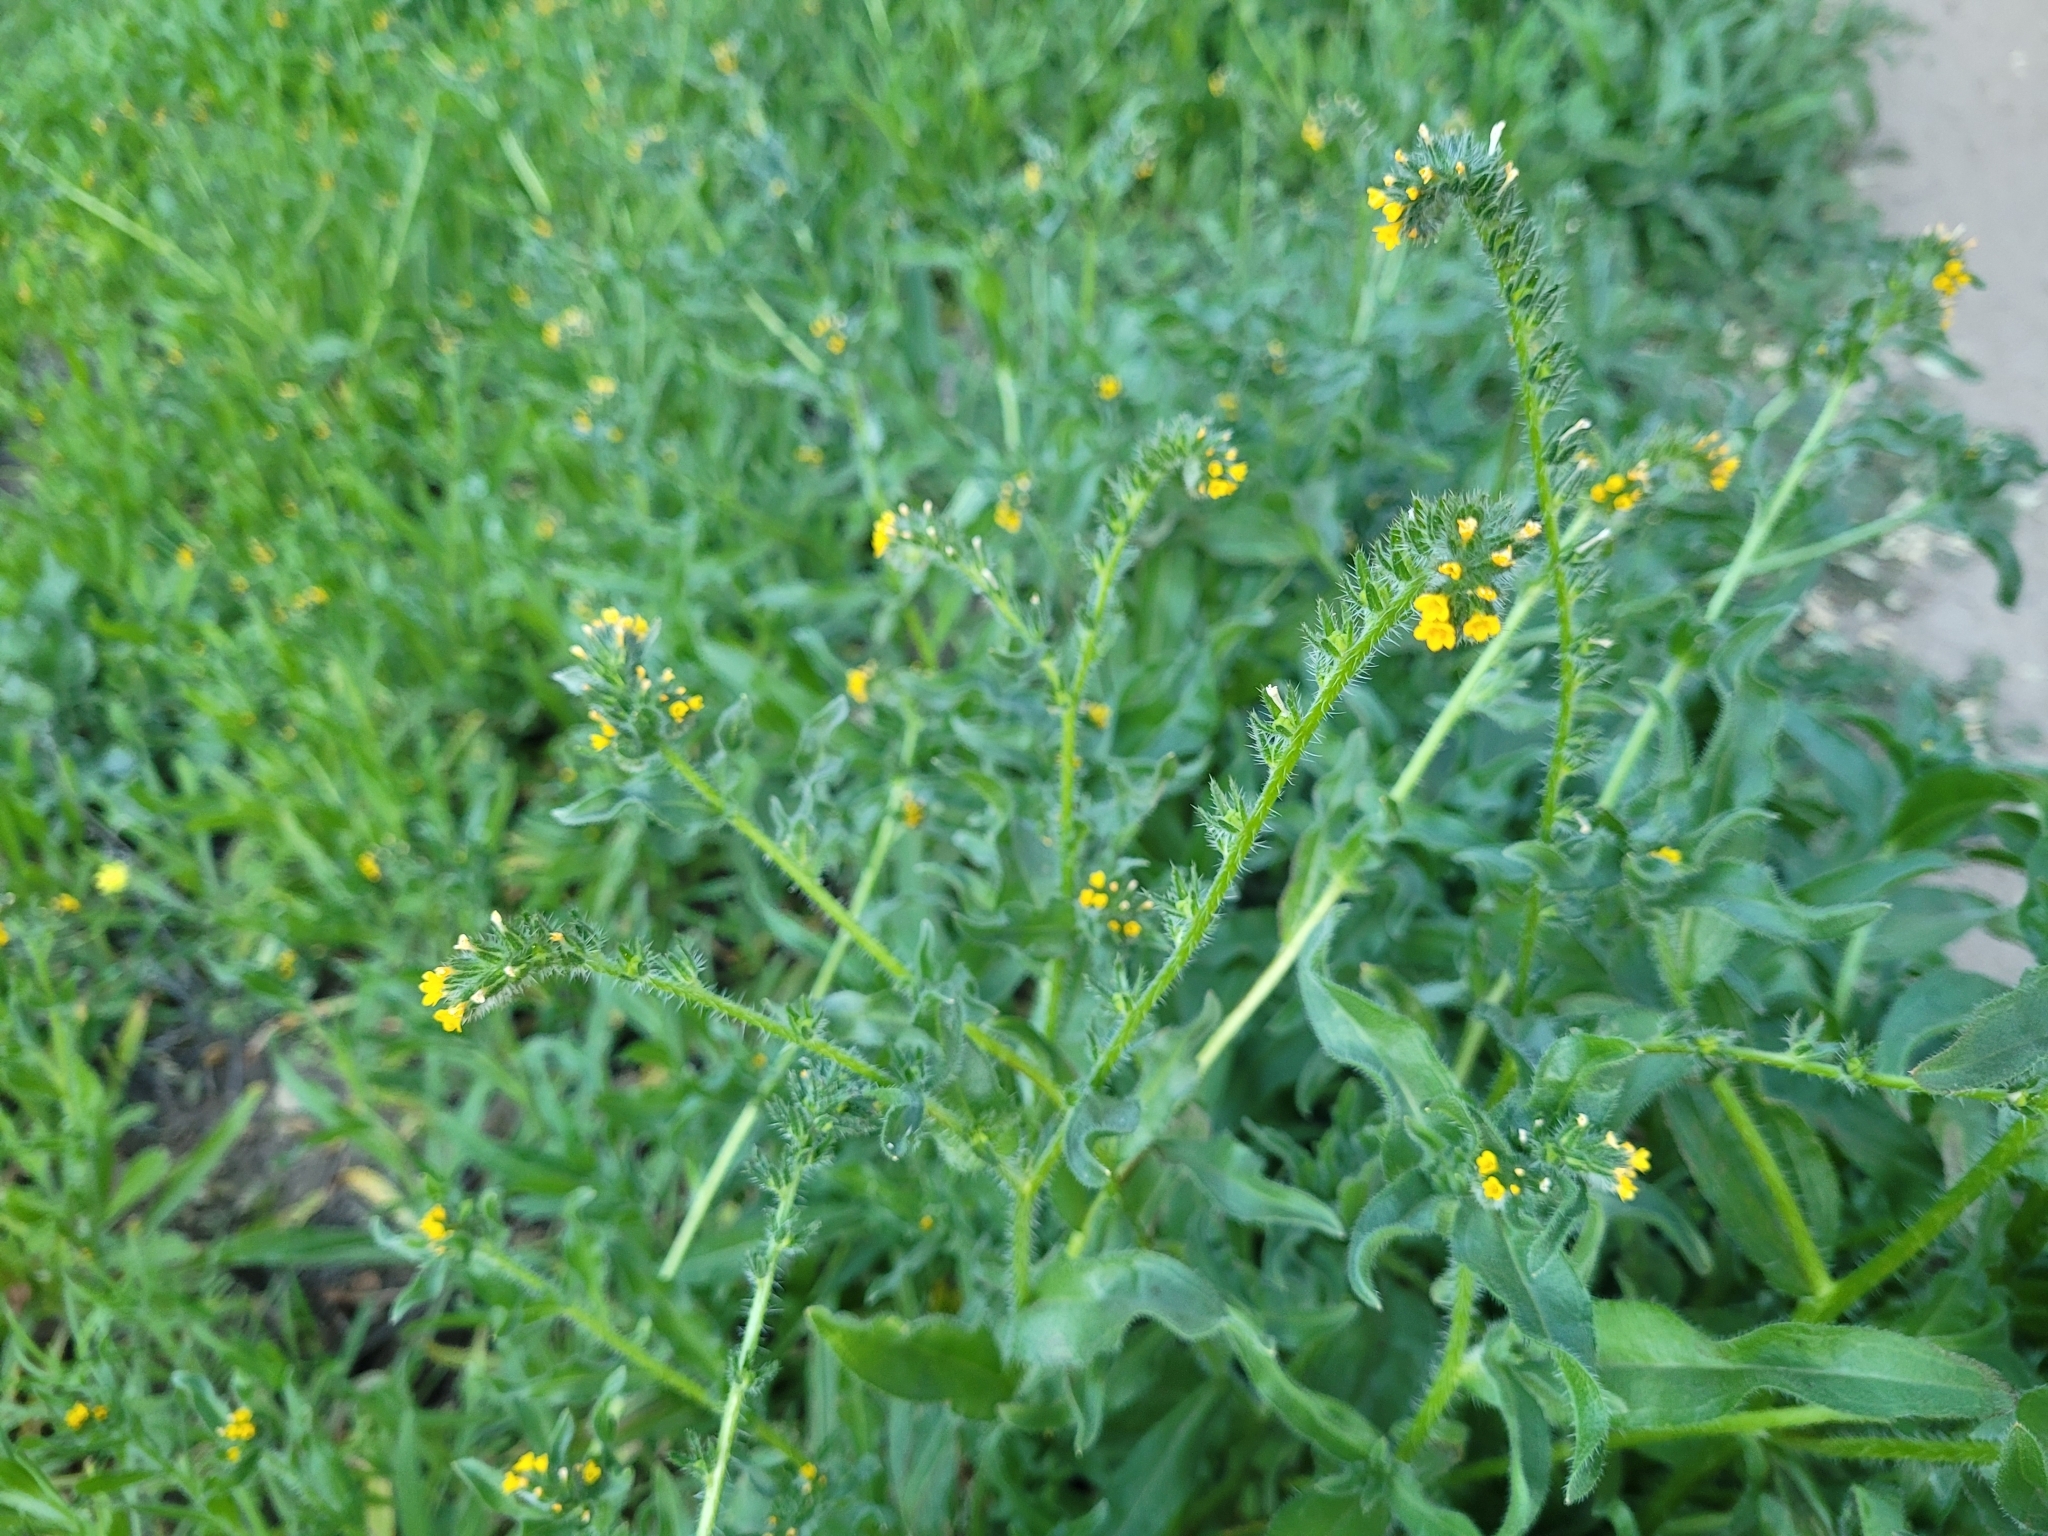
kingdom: Plantae
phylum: Tracheophyta
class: Magnoliopsida
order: Boraginales
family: Boraginaceae
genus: Amsinckia
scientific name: Amsinckia menziesii
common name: Menzies' fiddleneck
